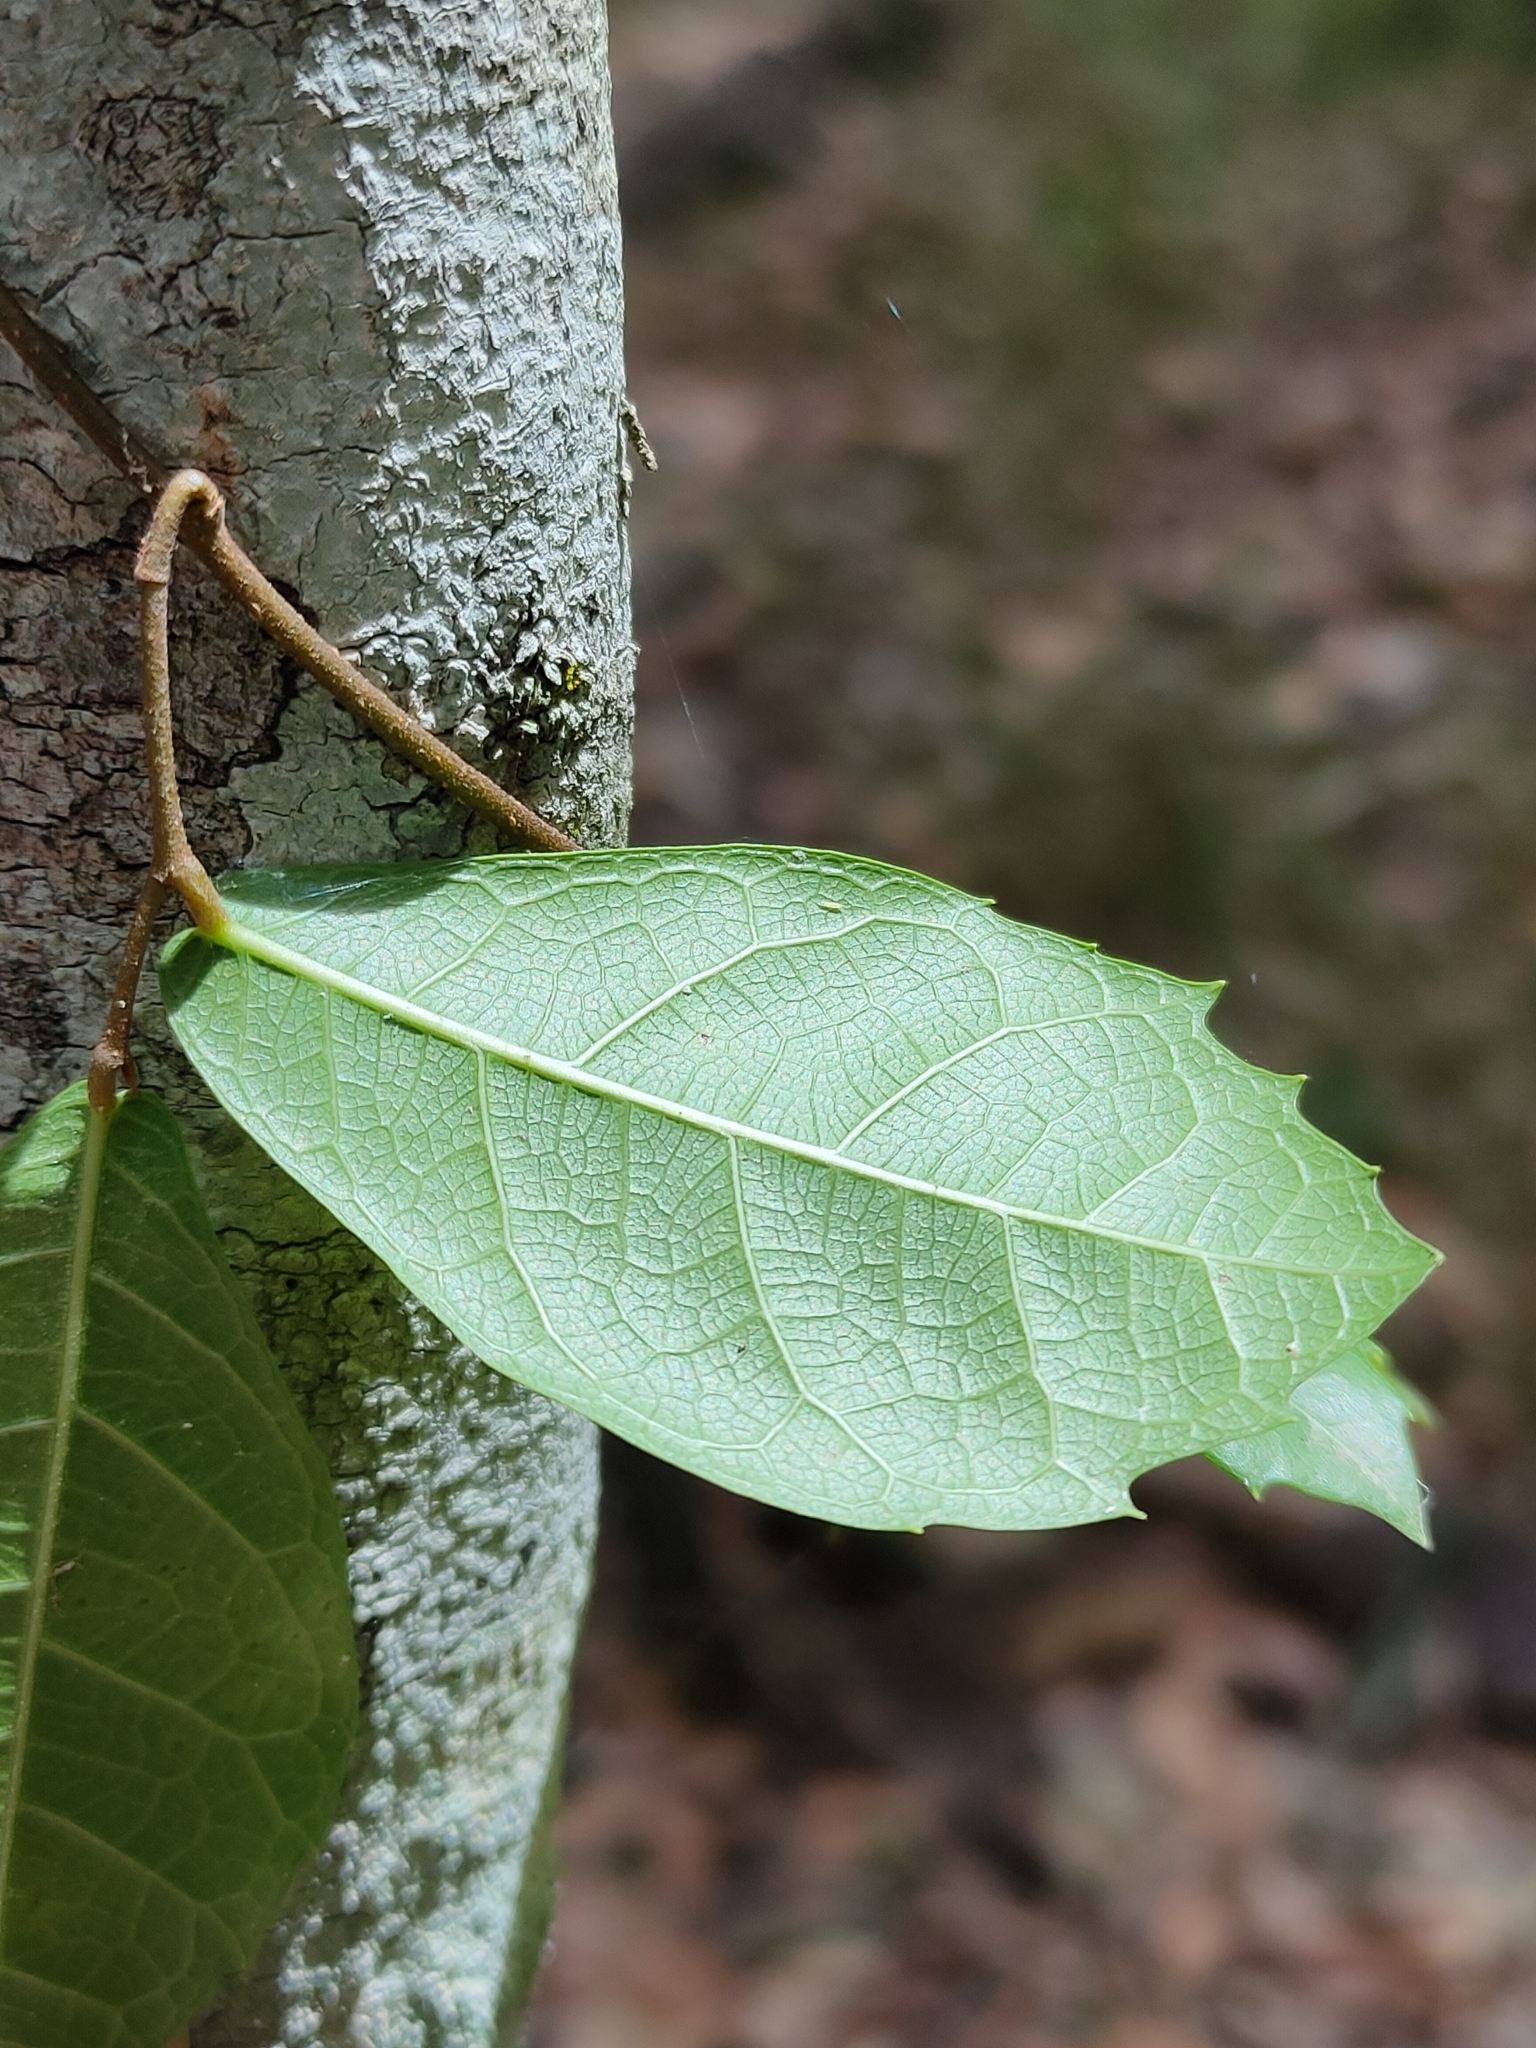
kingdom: Plantae
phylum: Tracheophyta
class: Magnoliopsida
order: Rosales
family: Moraceae
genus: Malaisia
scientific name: Malaisia scandens
